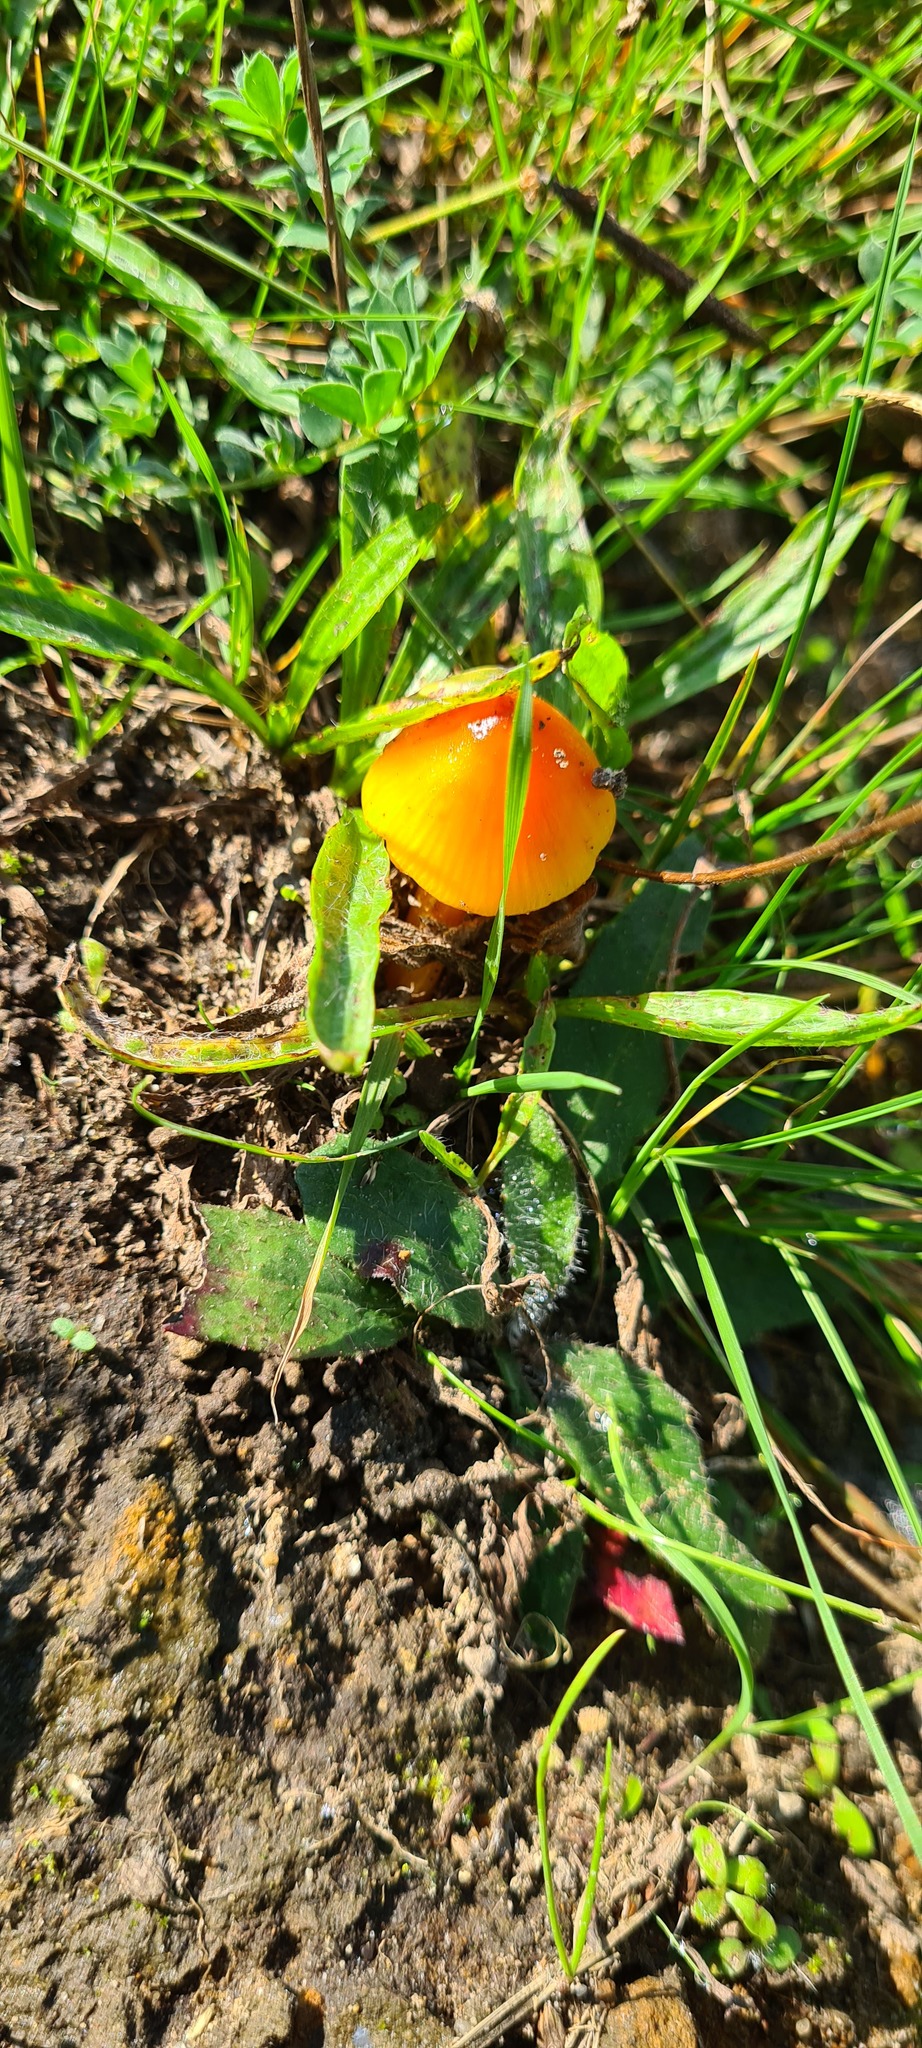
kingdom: Fungi
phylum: Basidiomycota
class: Agaricomycetes
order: Agaricales
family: Hygrophoraceae
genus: Hygrocybe
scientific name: Hygrocybe conica
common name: Blackening wax-cap
